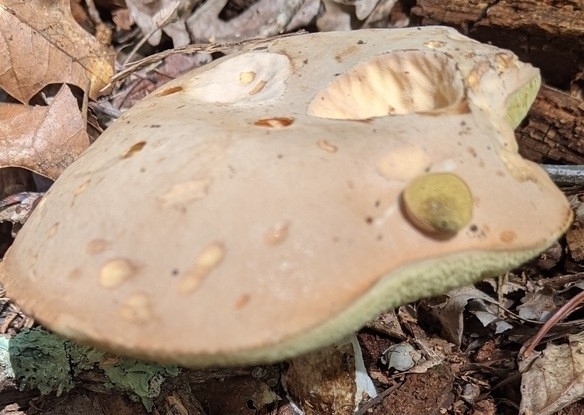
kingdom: Fungi
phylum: Basidiomycota
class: Agaricomycetes
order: Boletales
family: Boletaceae
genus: Imleria
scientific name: Imleria pallida
